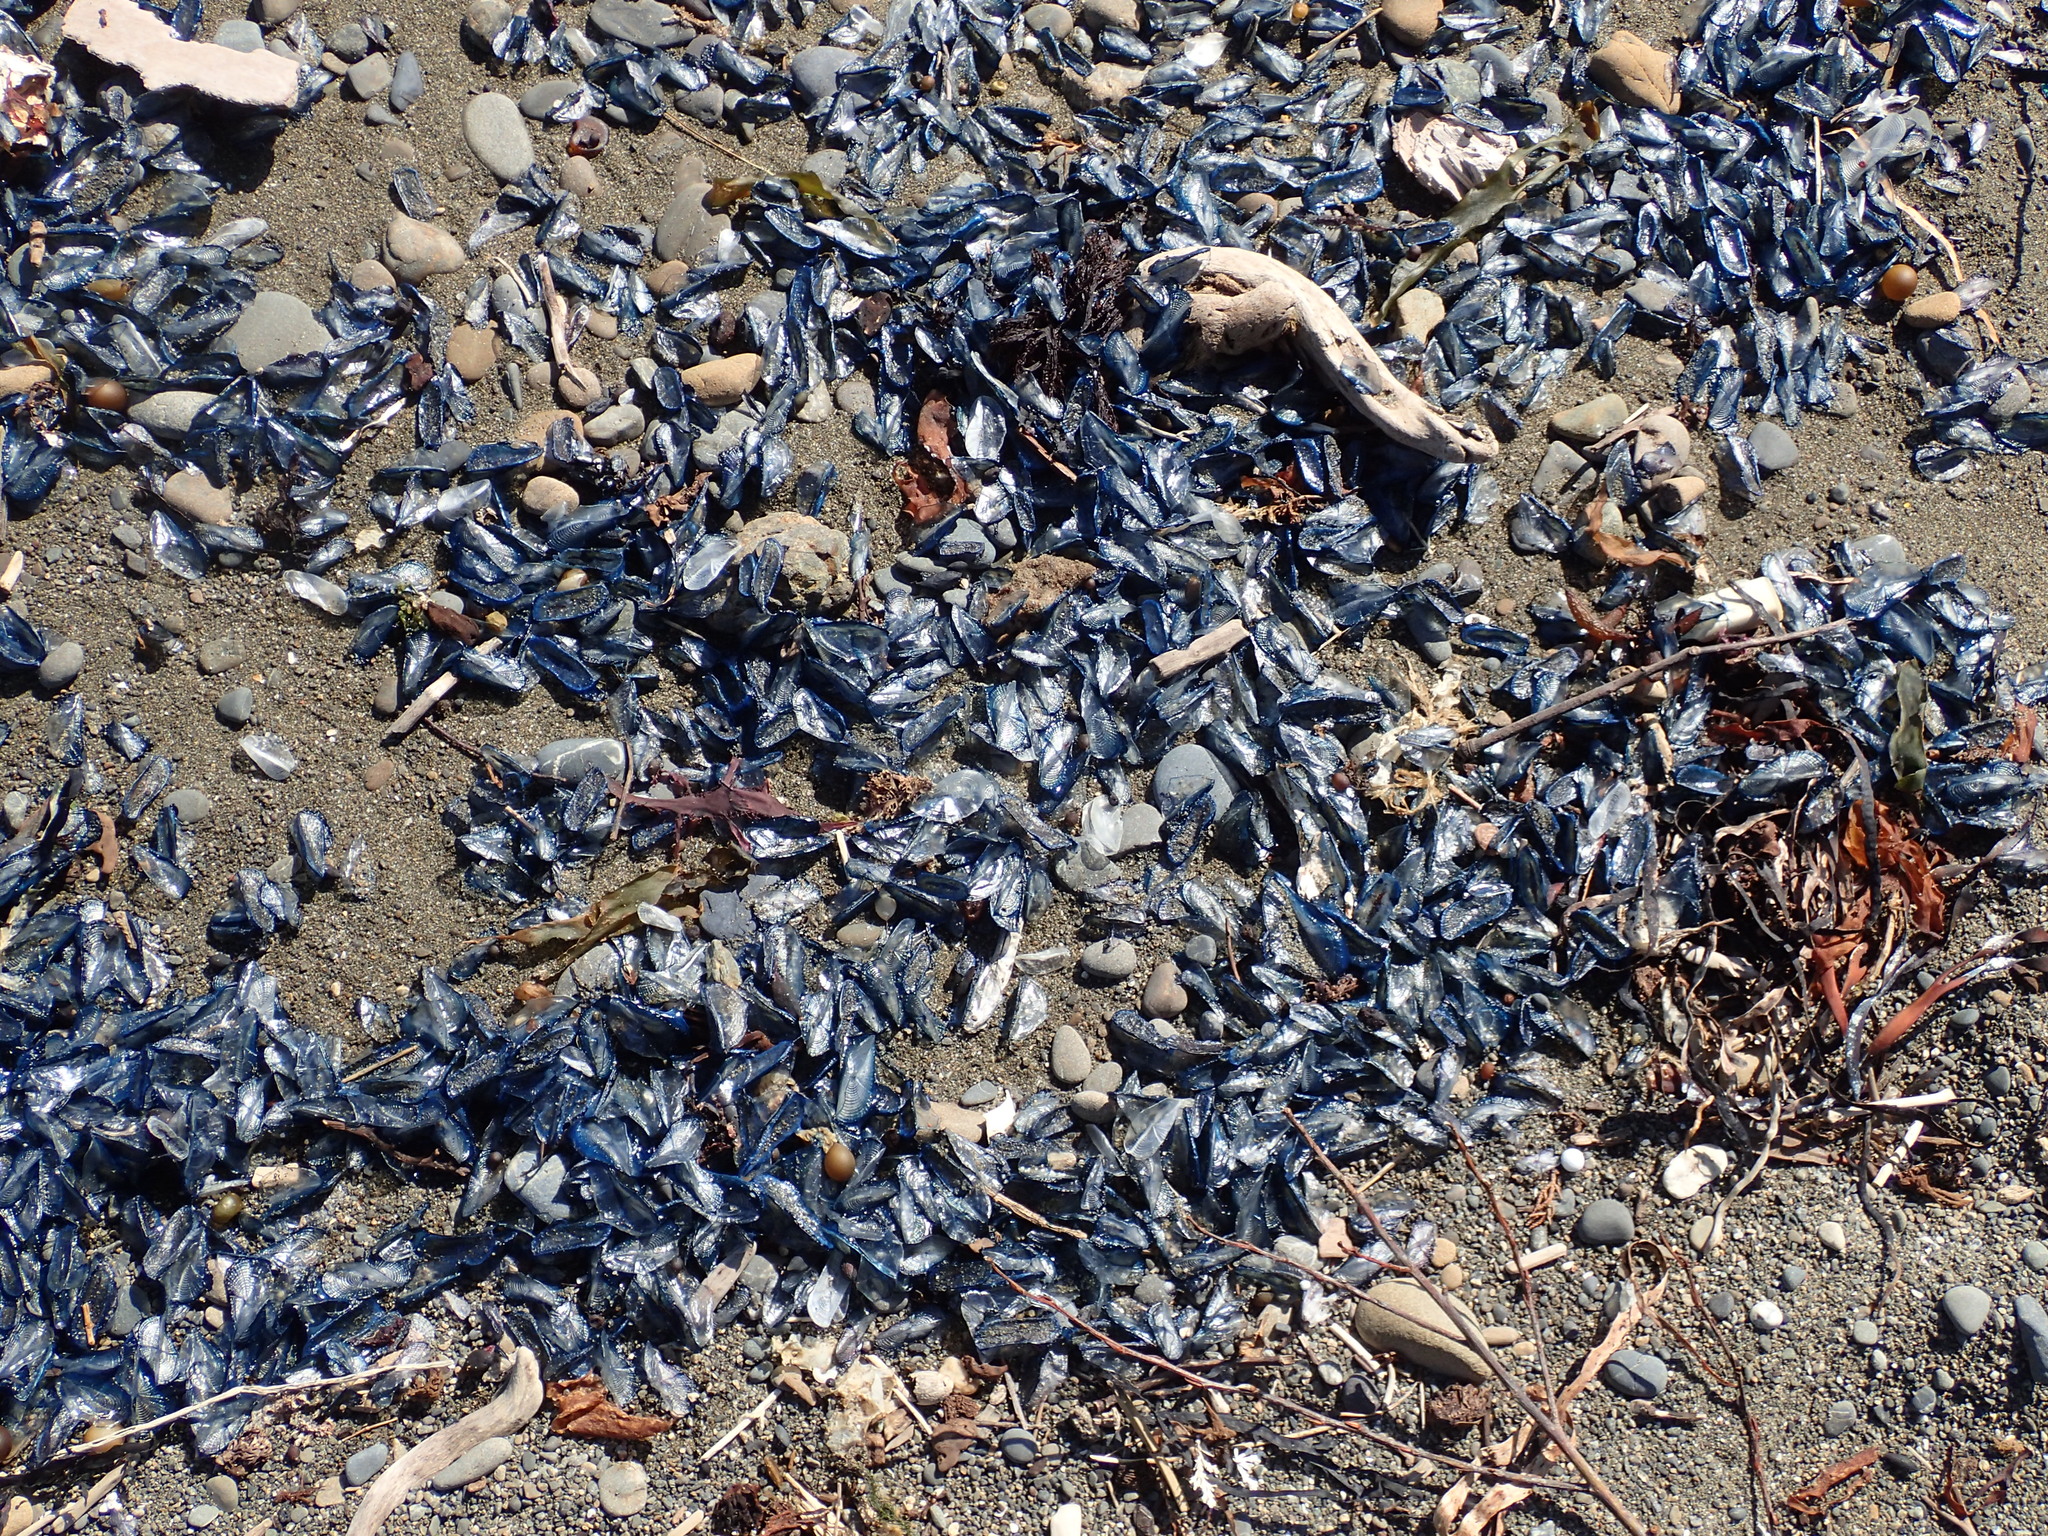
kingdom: Animalia
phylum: Cnidaria
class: Hydrozoa
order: Anthoathecata
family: Porpitidae
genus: Velella
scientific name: Velella velella
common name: By-the-wind-sailor
